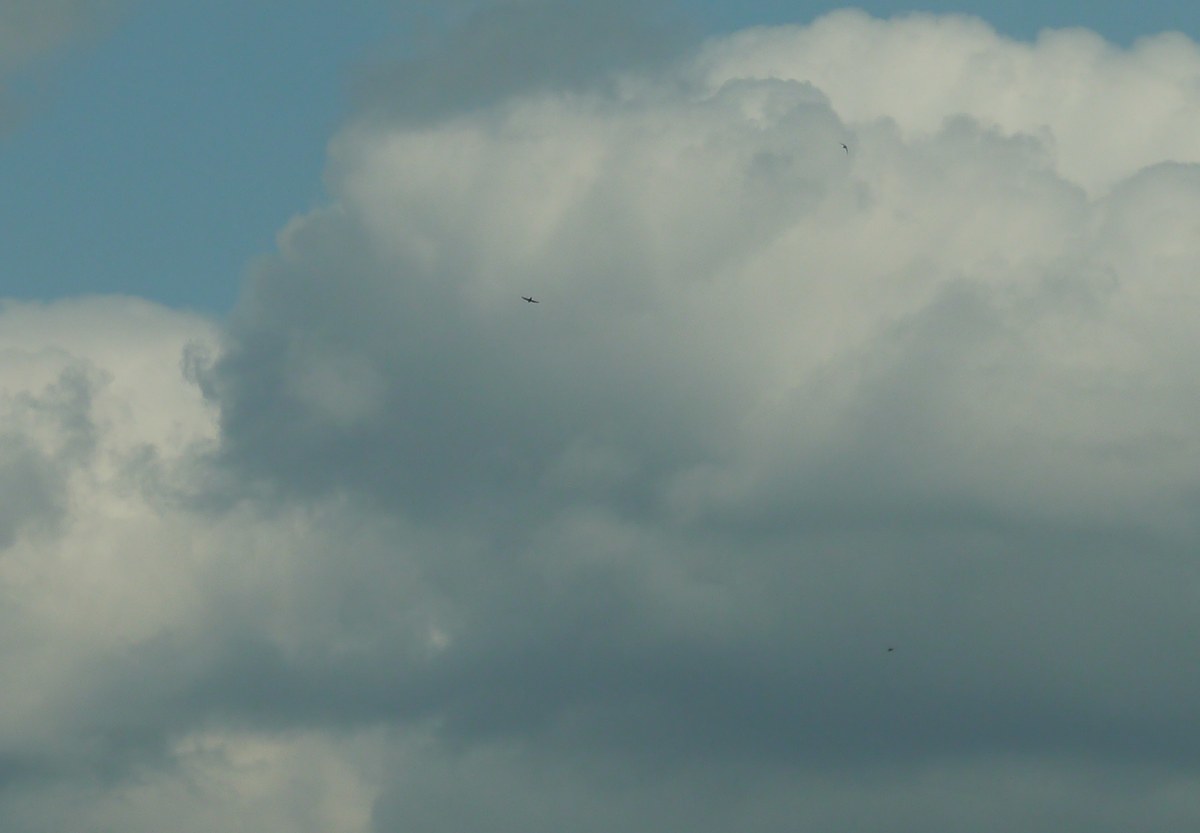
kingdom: Animalia
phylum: Chordata
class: Aves
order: Apodiformes
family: Apodidae
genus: Apus
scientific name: Apus apus
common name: Common swift
